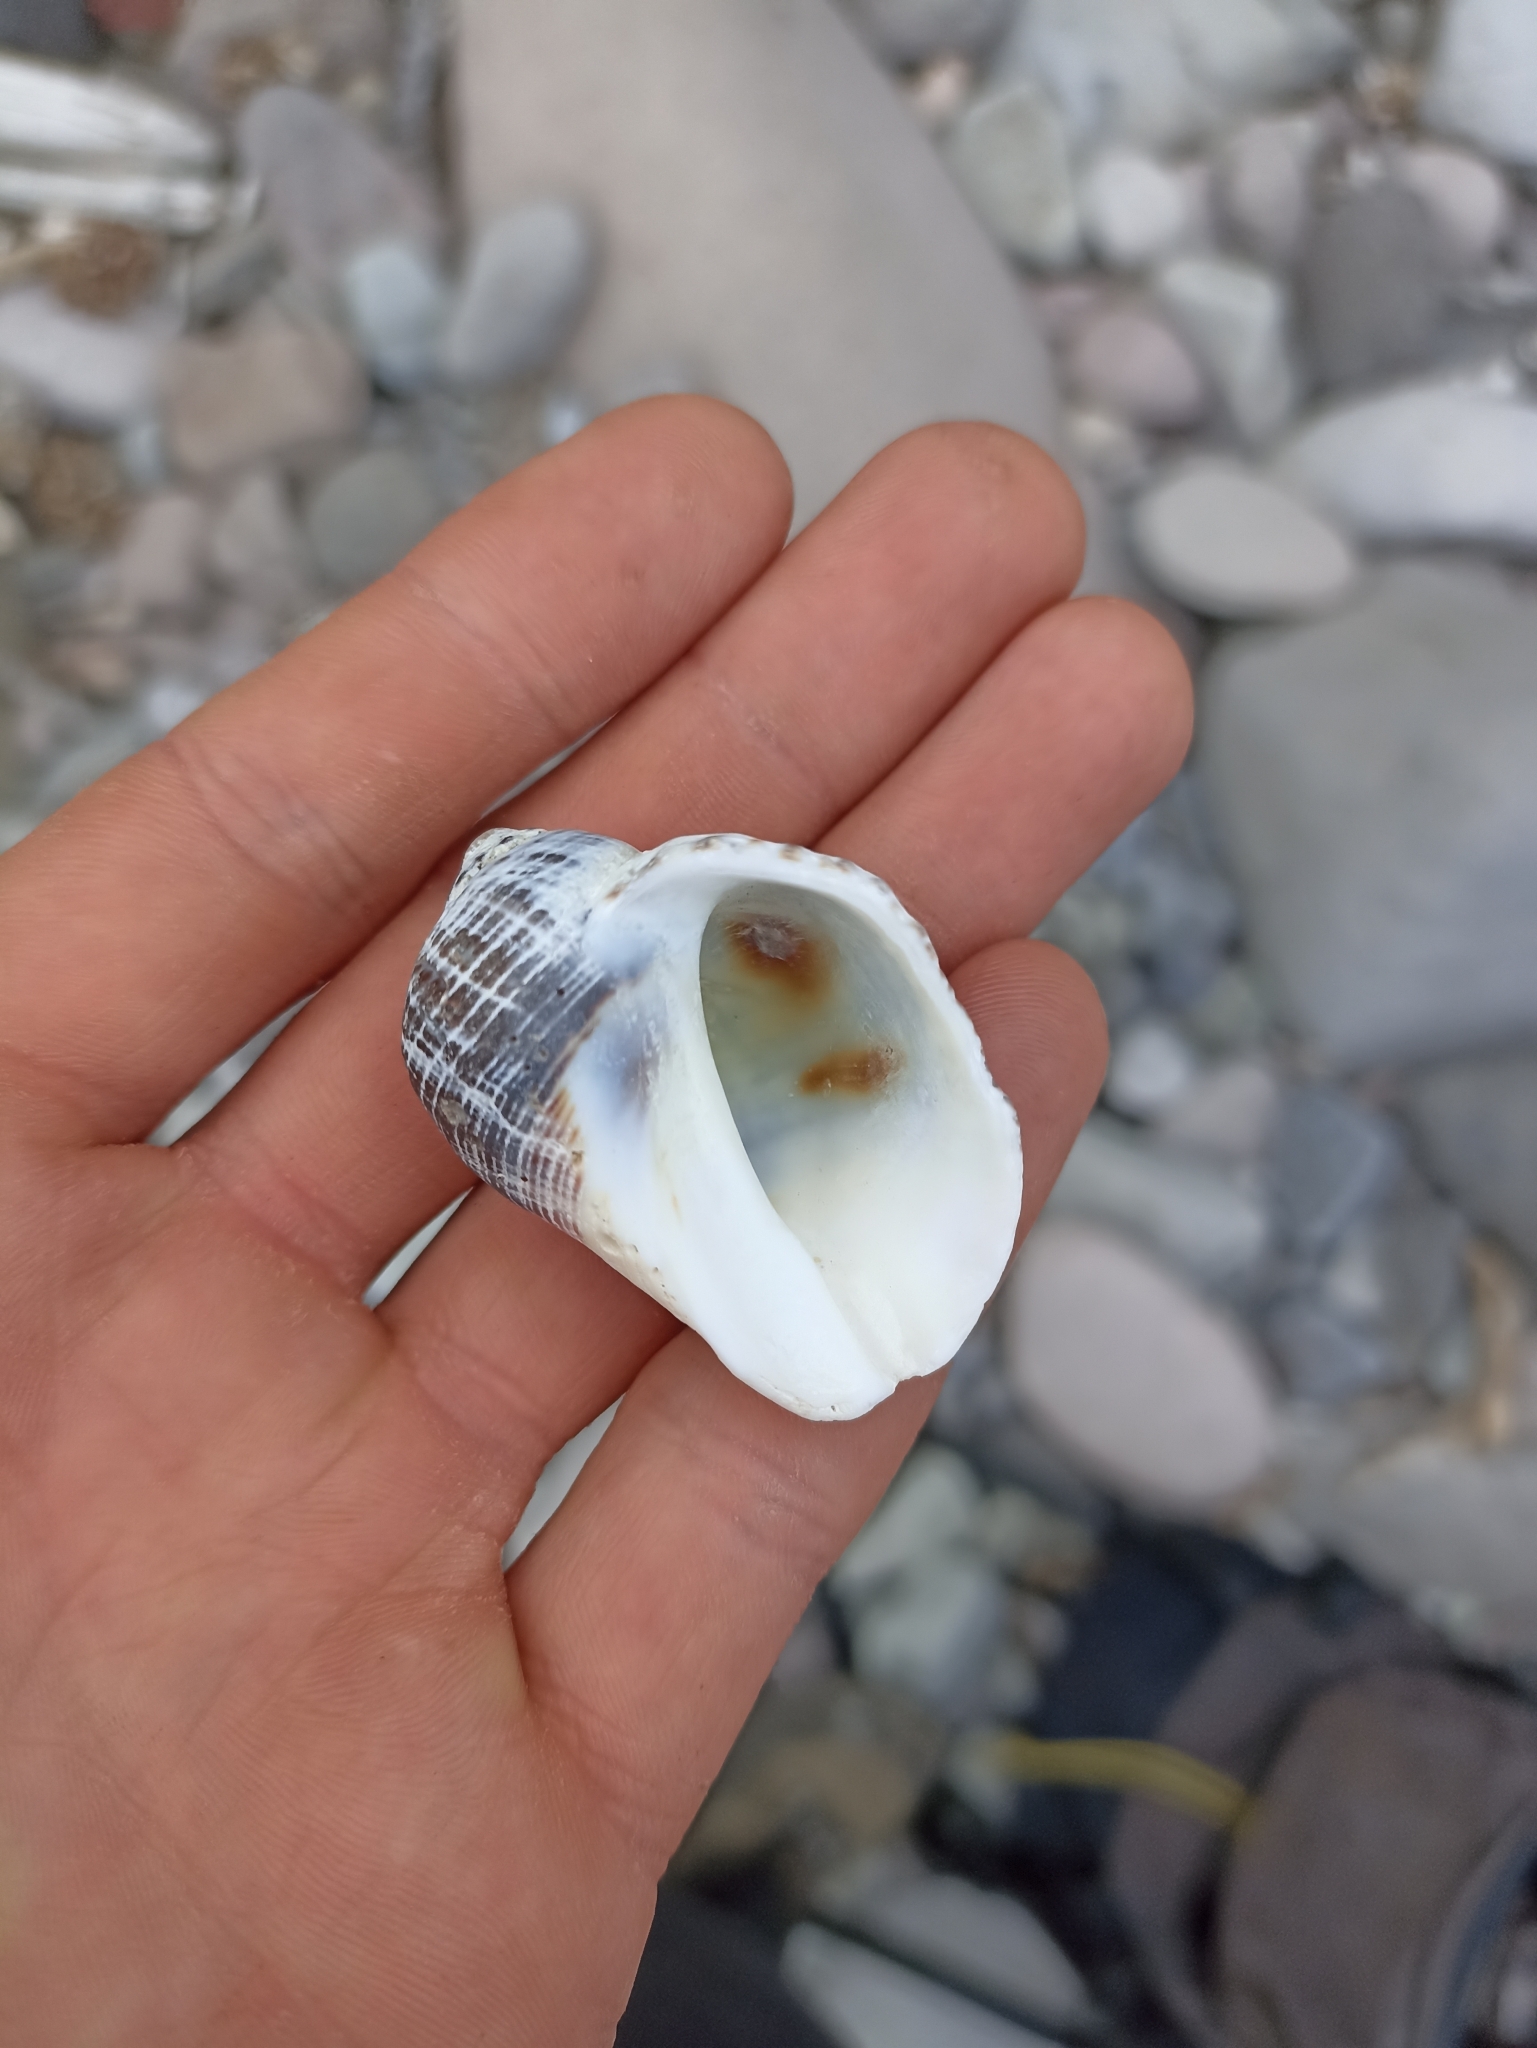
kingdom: Animalia
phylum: Mollusca
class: Gastropoda
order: Neogastropoda
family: Muricidae
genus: Haustrum
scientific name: Haustrum haustorium
